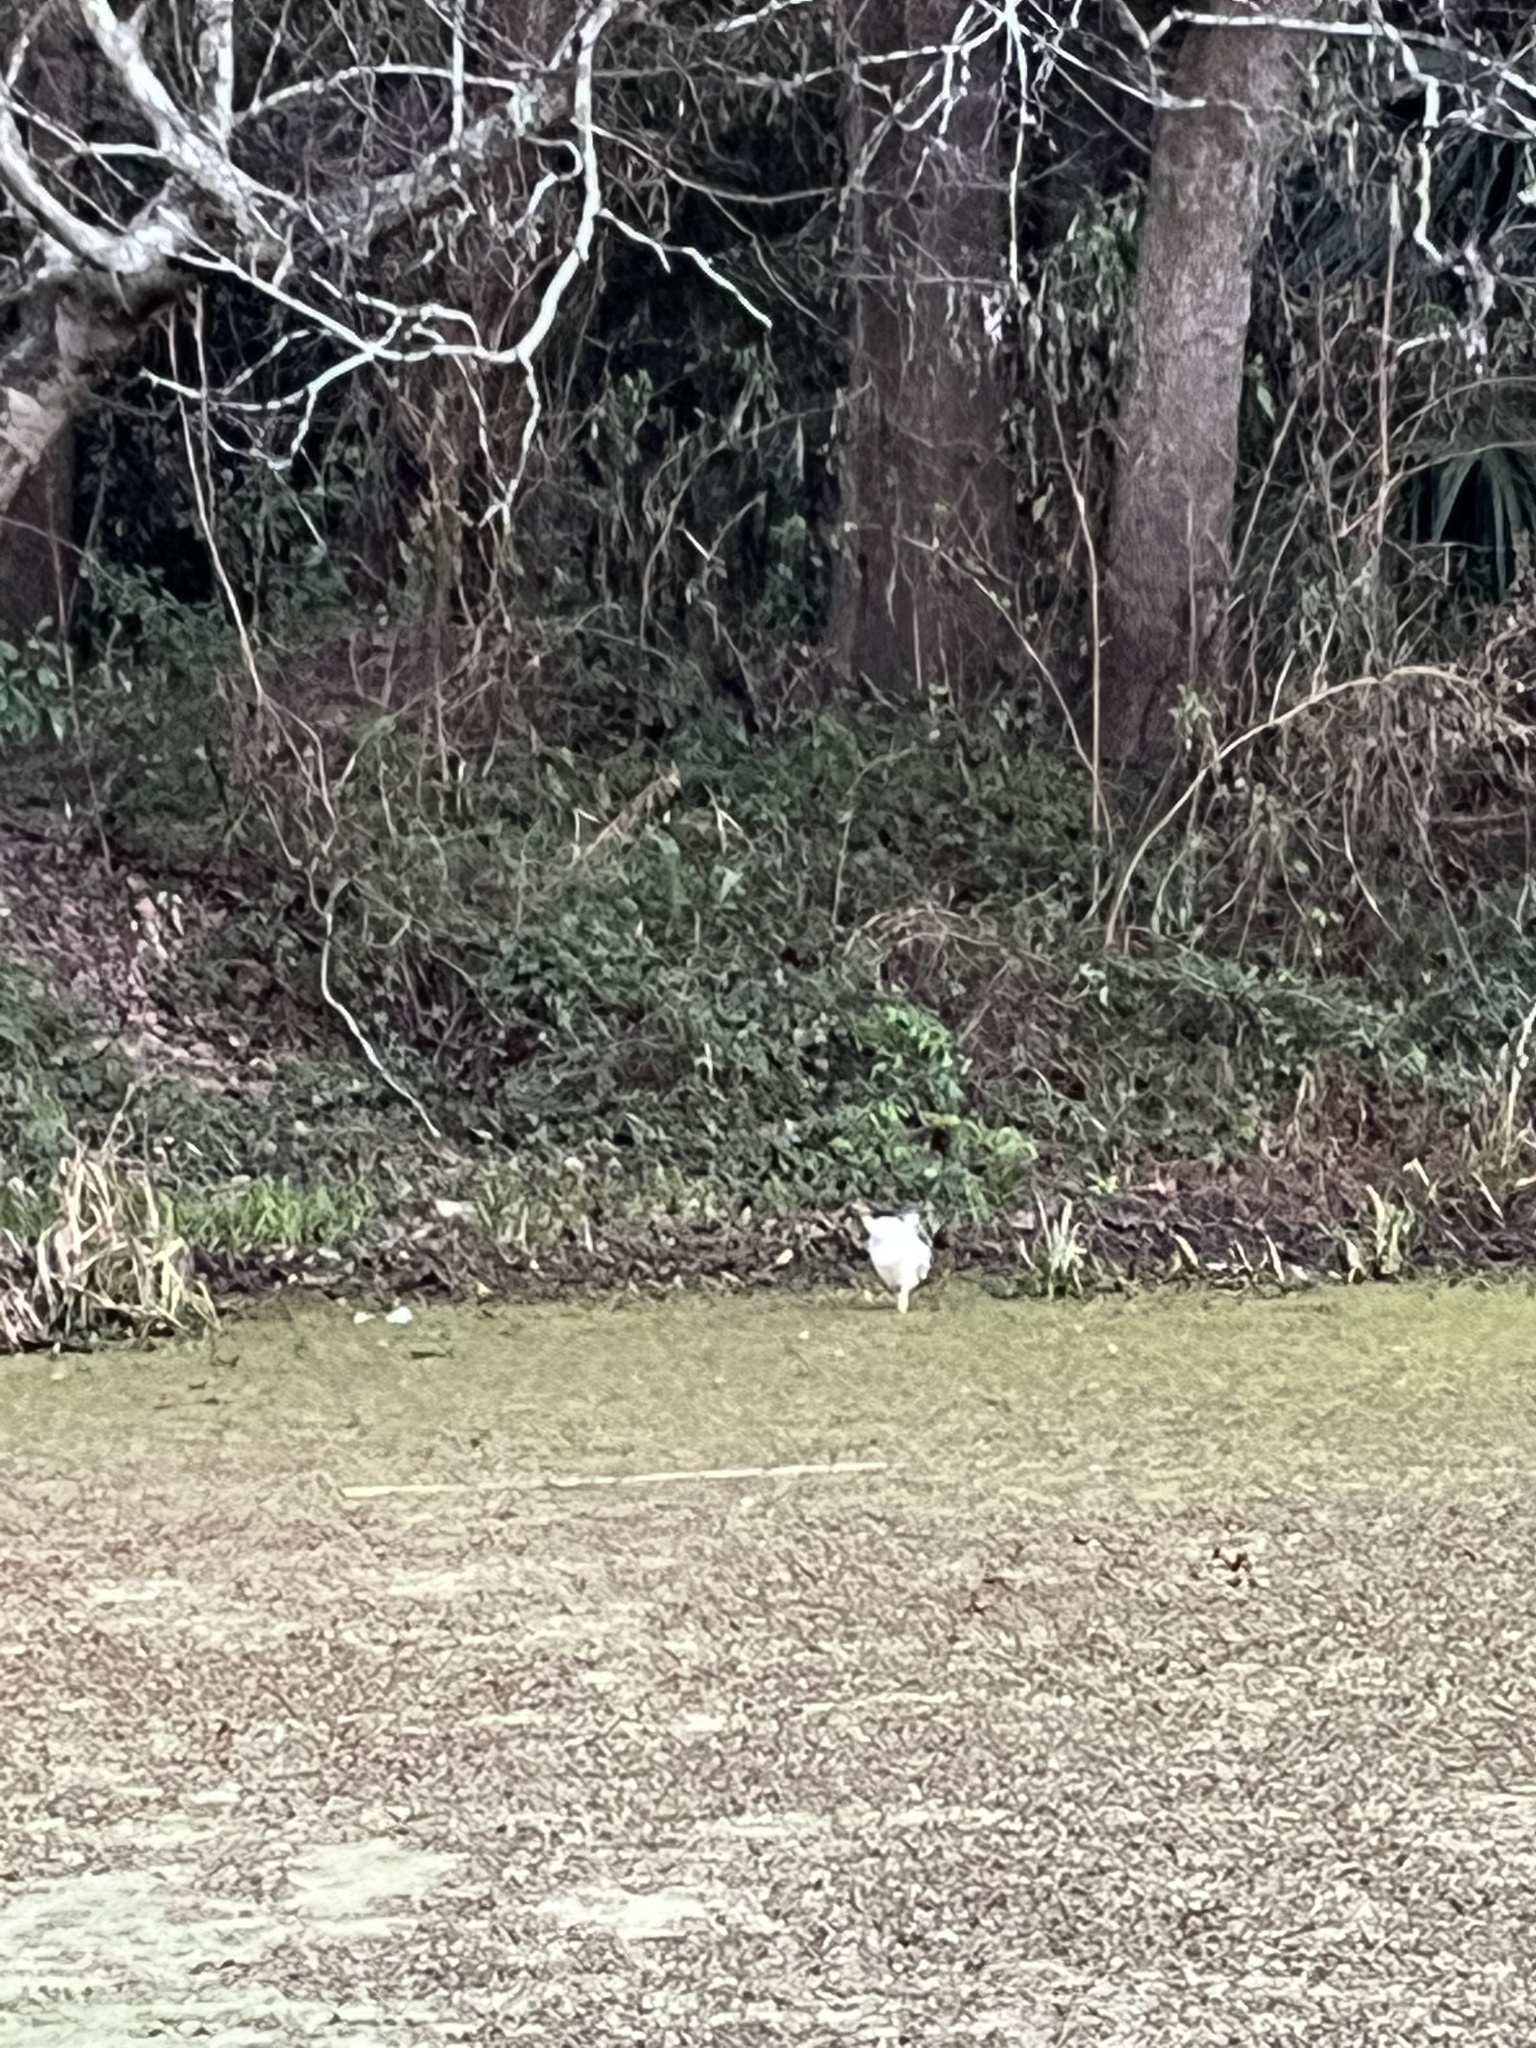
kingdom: Animalia
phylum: Chordata
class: Aves
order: Pelecaniformes
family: Ardeidae
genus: Nycticorax
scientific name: Nycticorax nycticorax
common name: Black-crowned night heron
